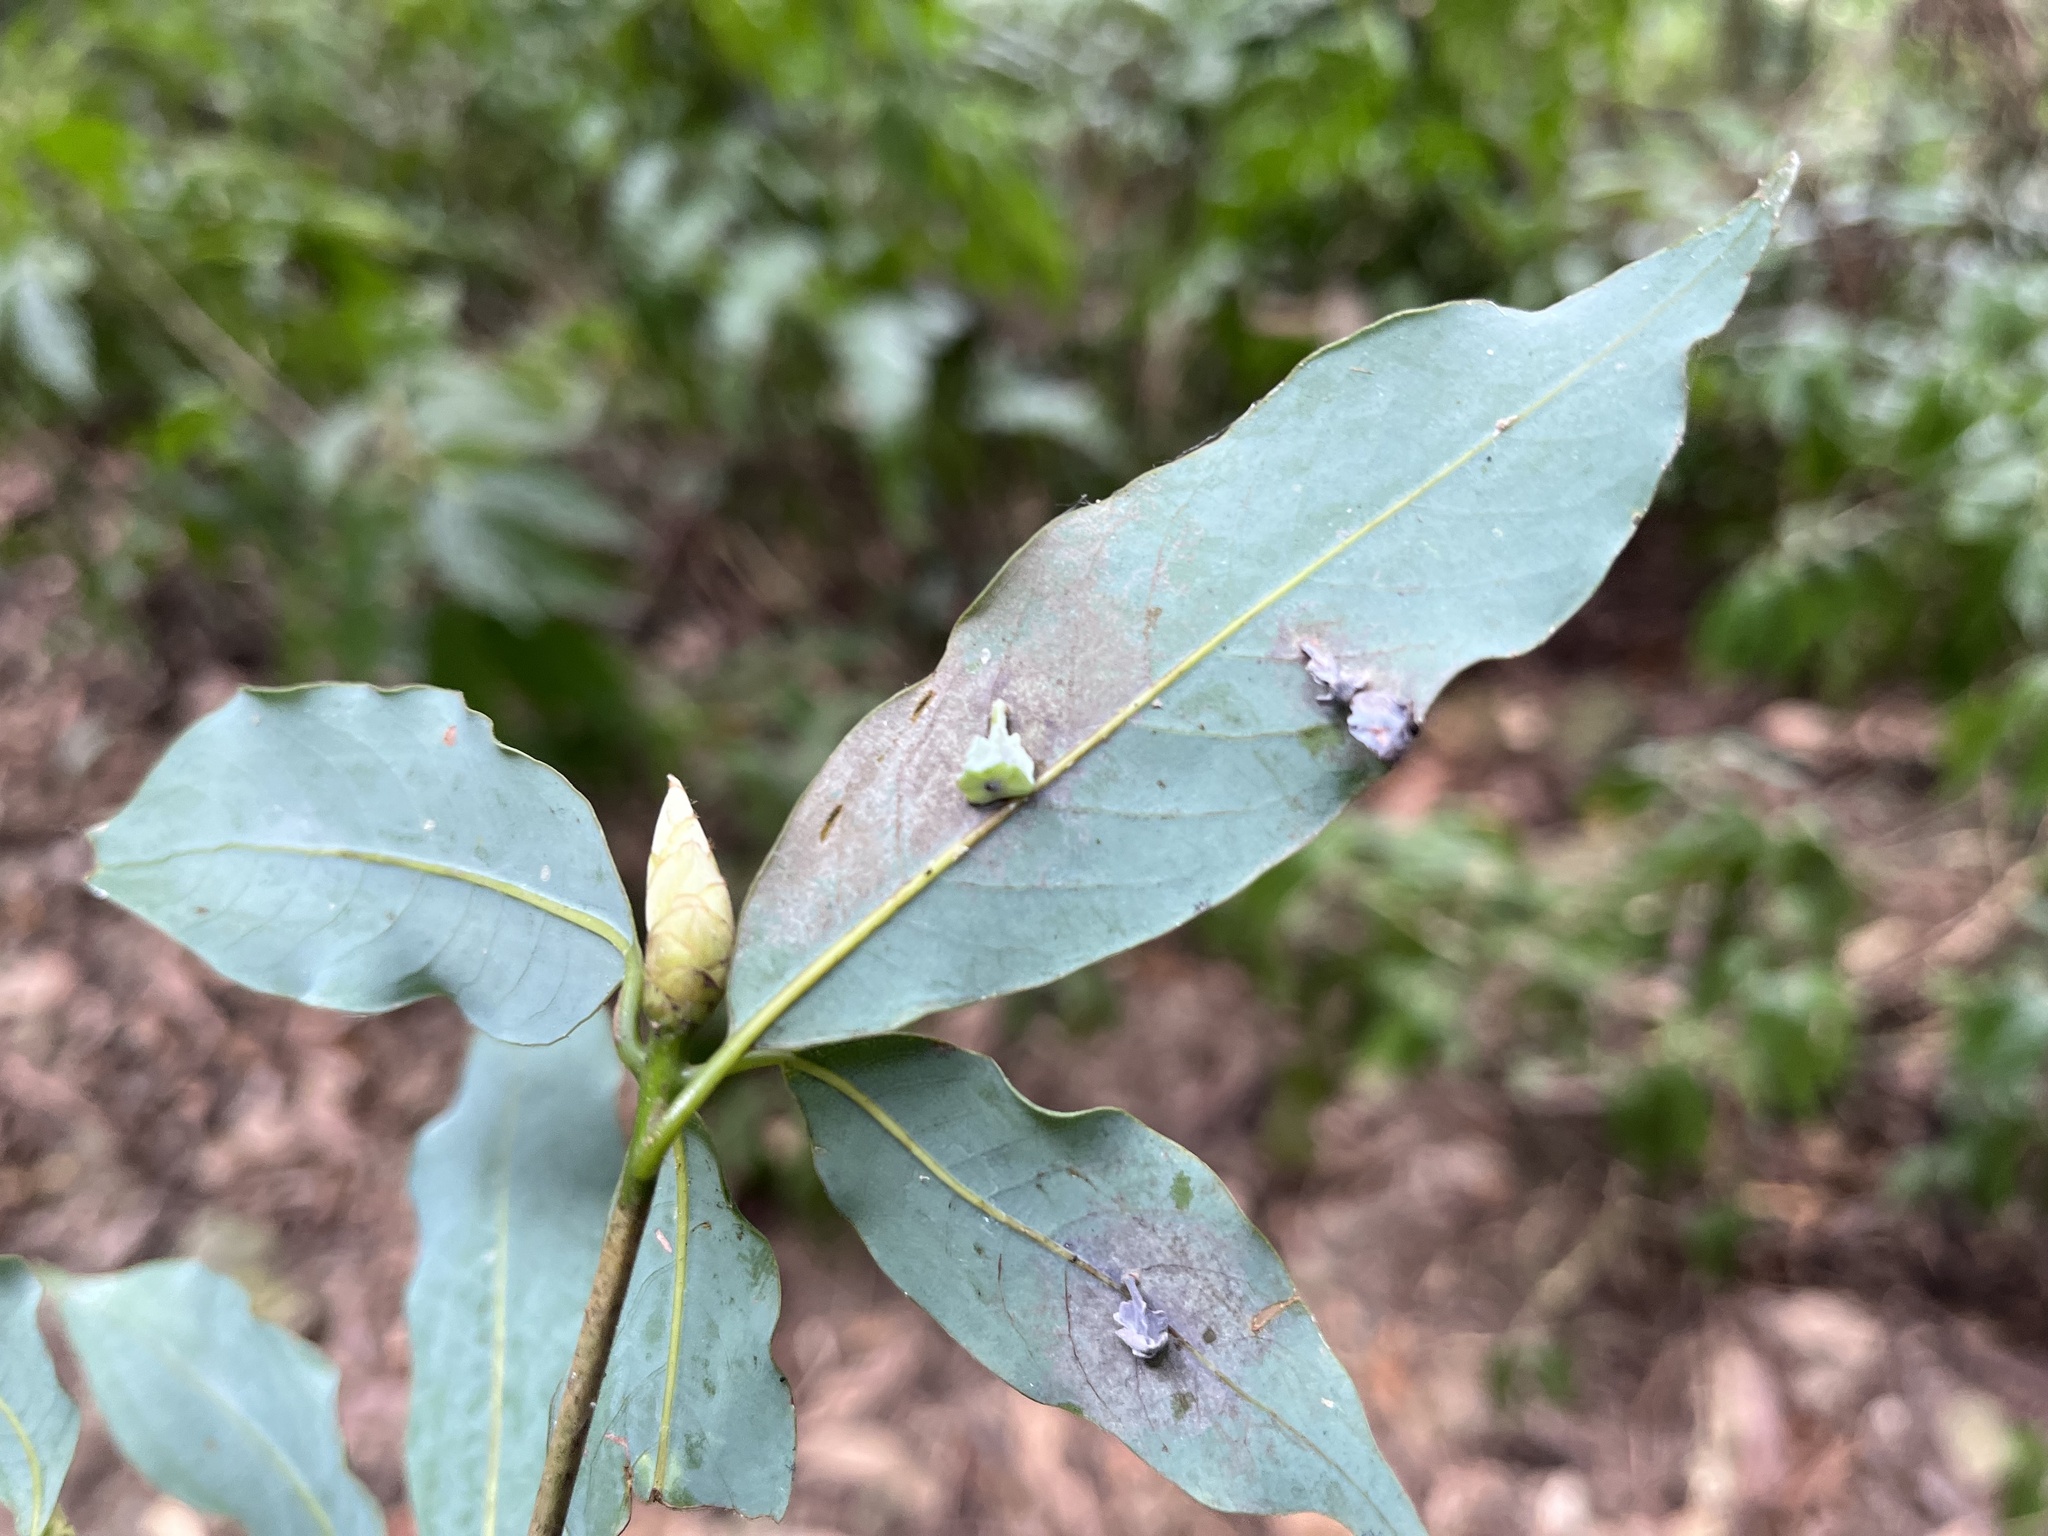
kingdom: Plantae
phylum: Tracheophyta
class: Magnoliopsida
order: Laurales
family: Lauraceae
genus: Machilus
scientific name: Machilus japonica
